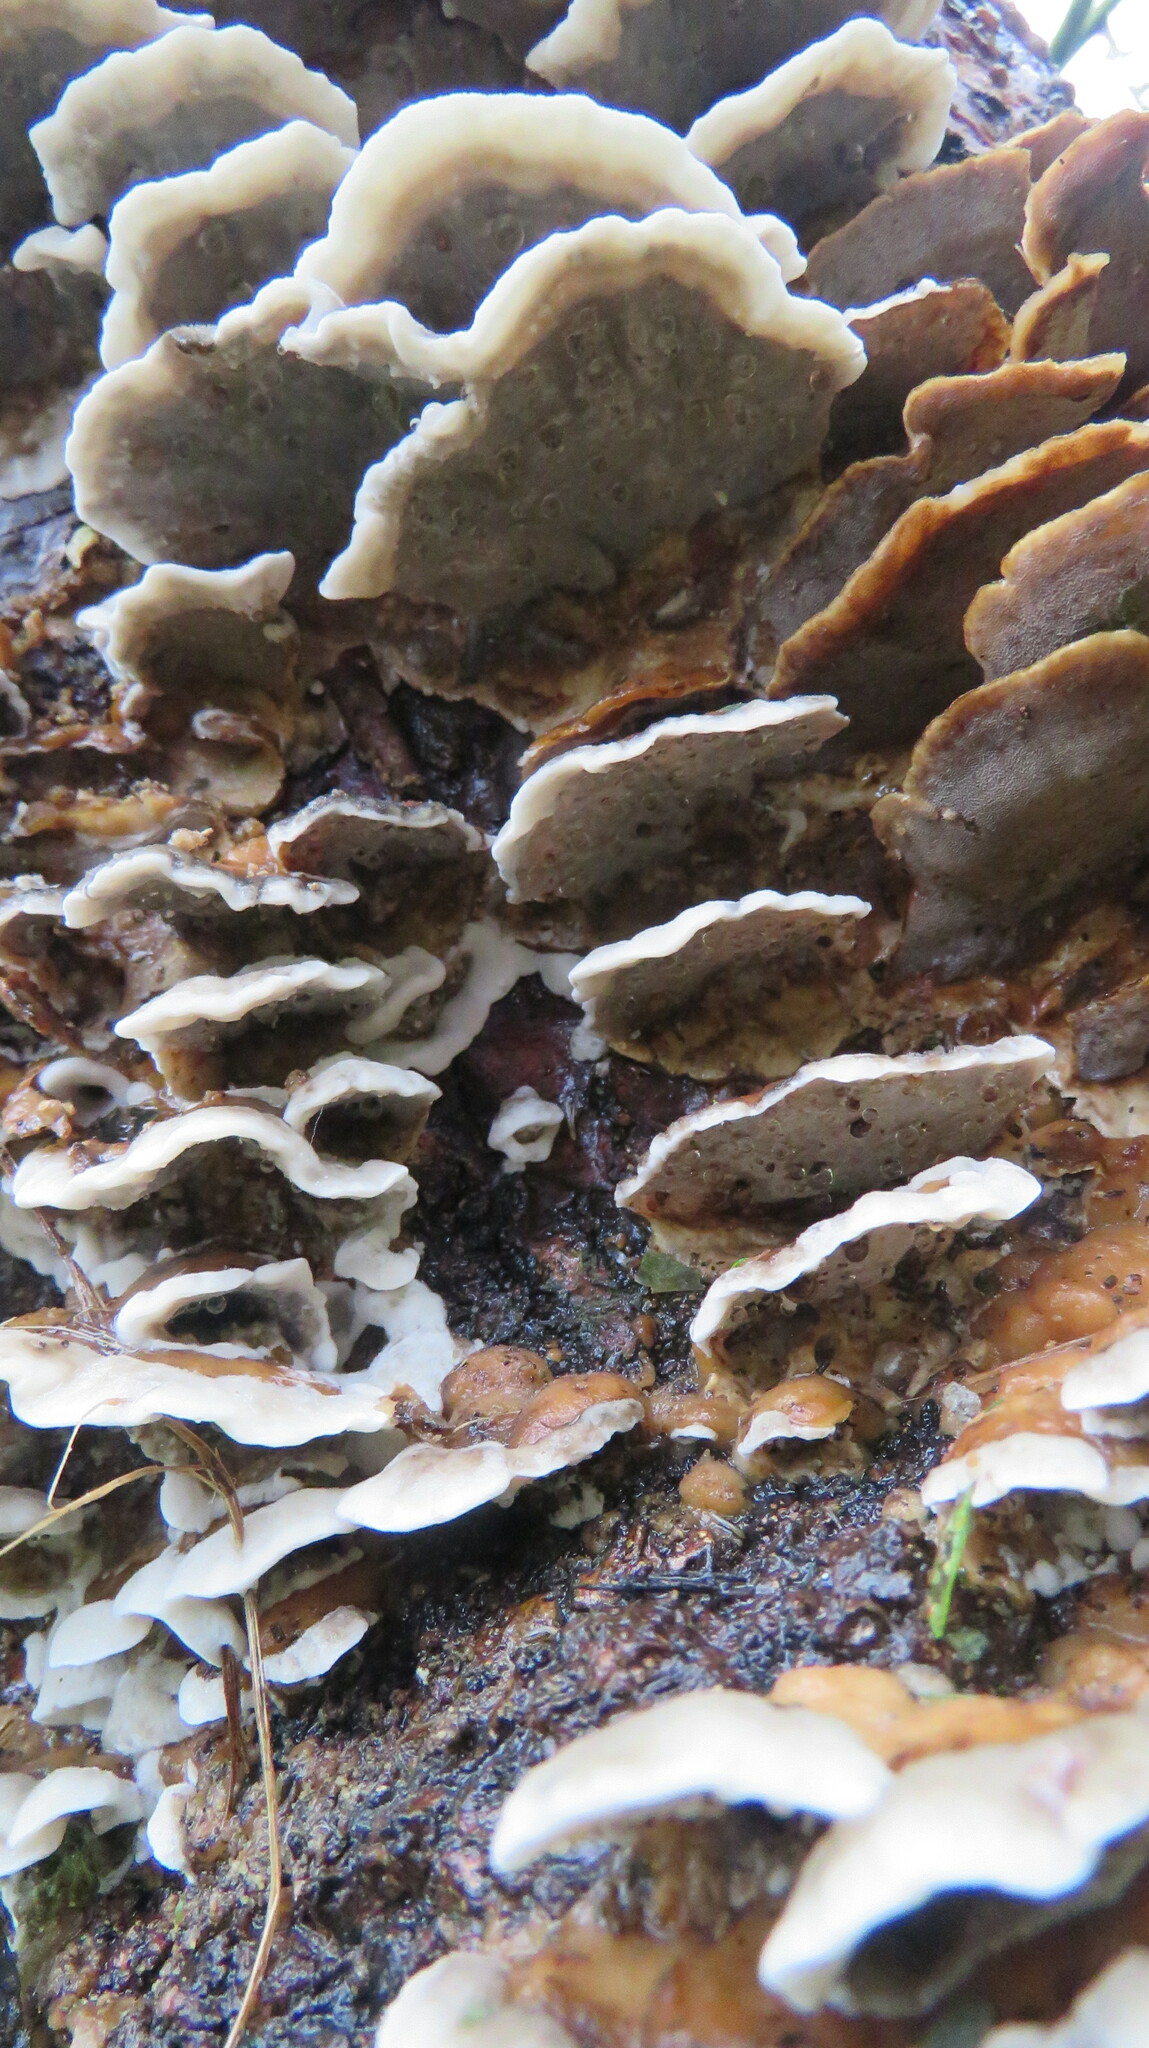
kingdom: Fungi
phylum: Basidiomycota
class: Agaricomycetes
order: Polyporales
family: Phanerochaetaceae
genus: Bjerkandera
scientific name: Bjerkandera adusta
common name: Smoky bracket
